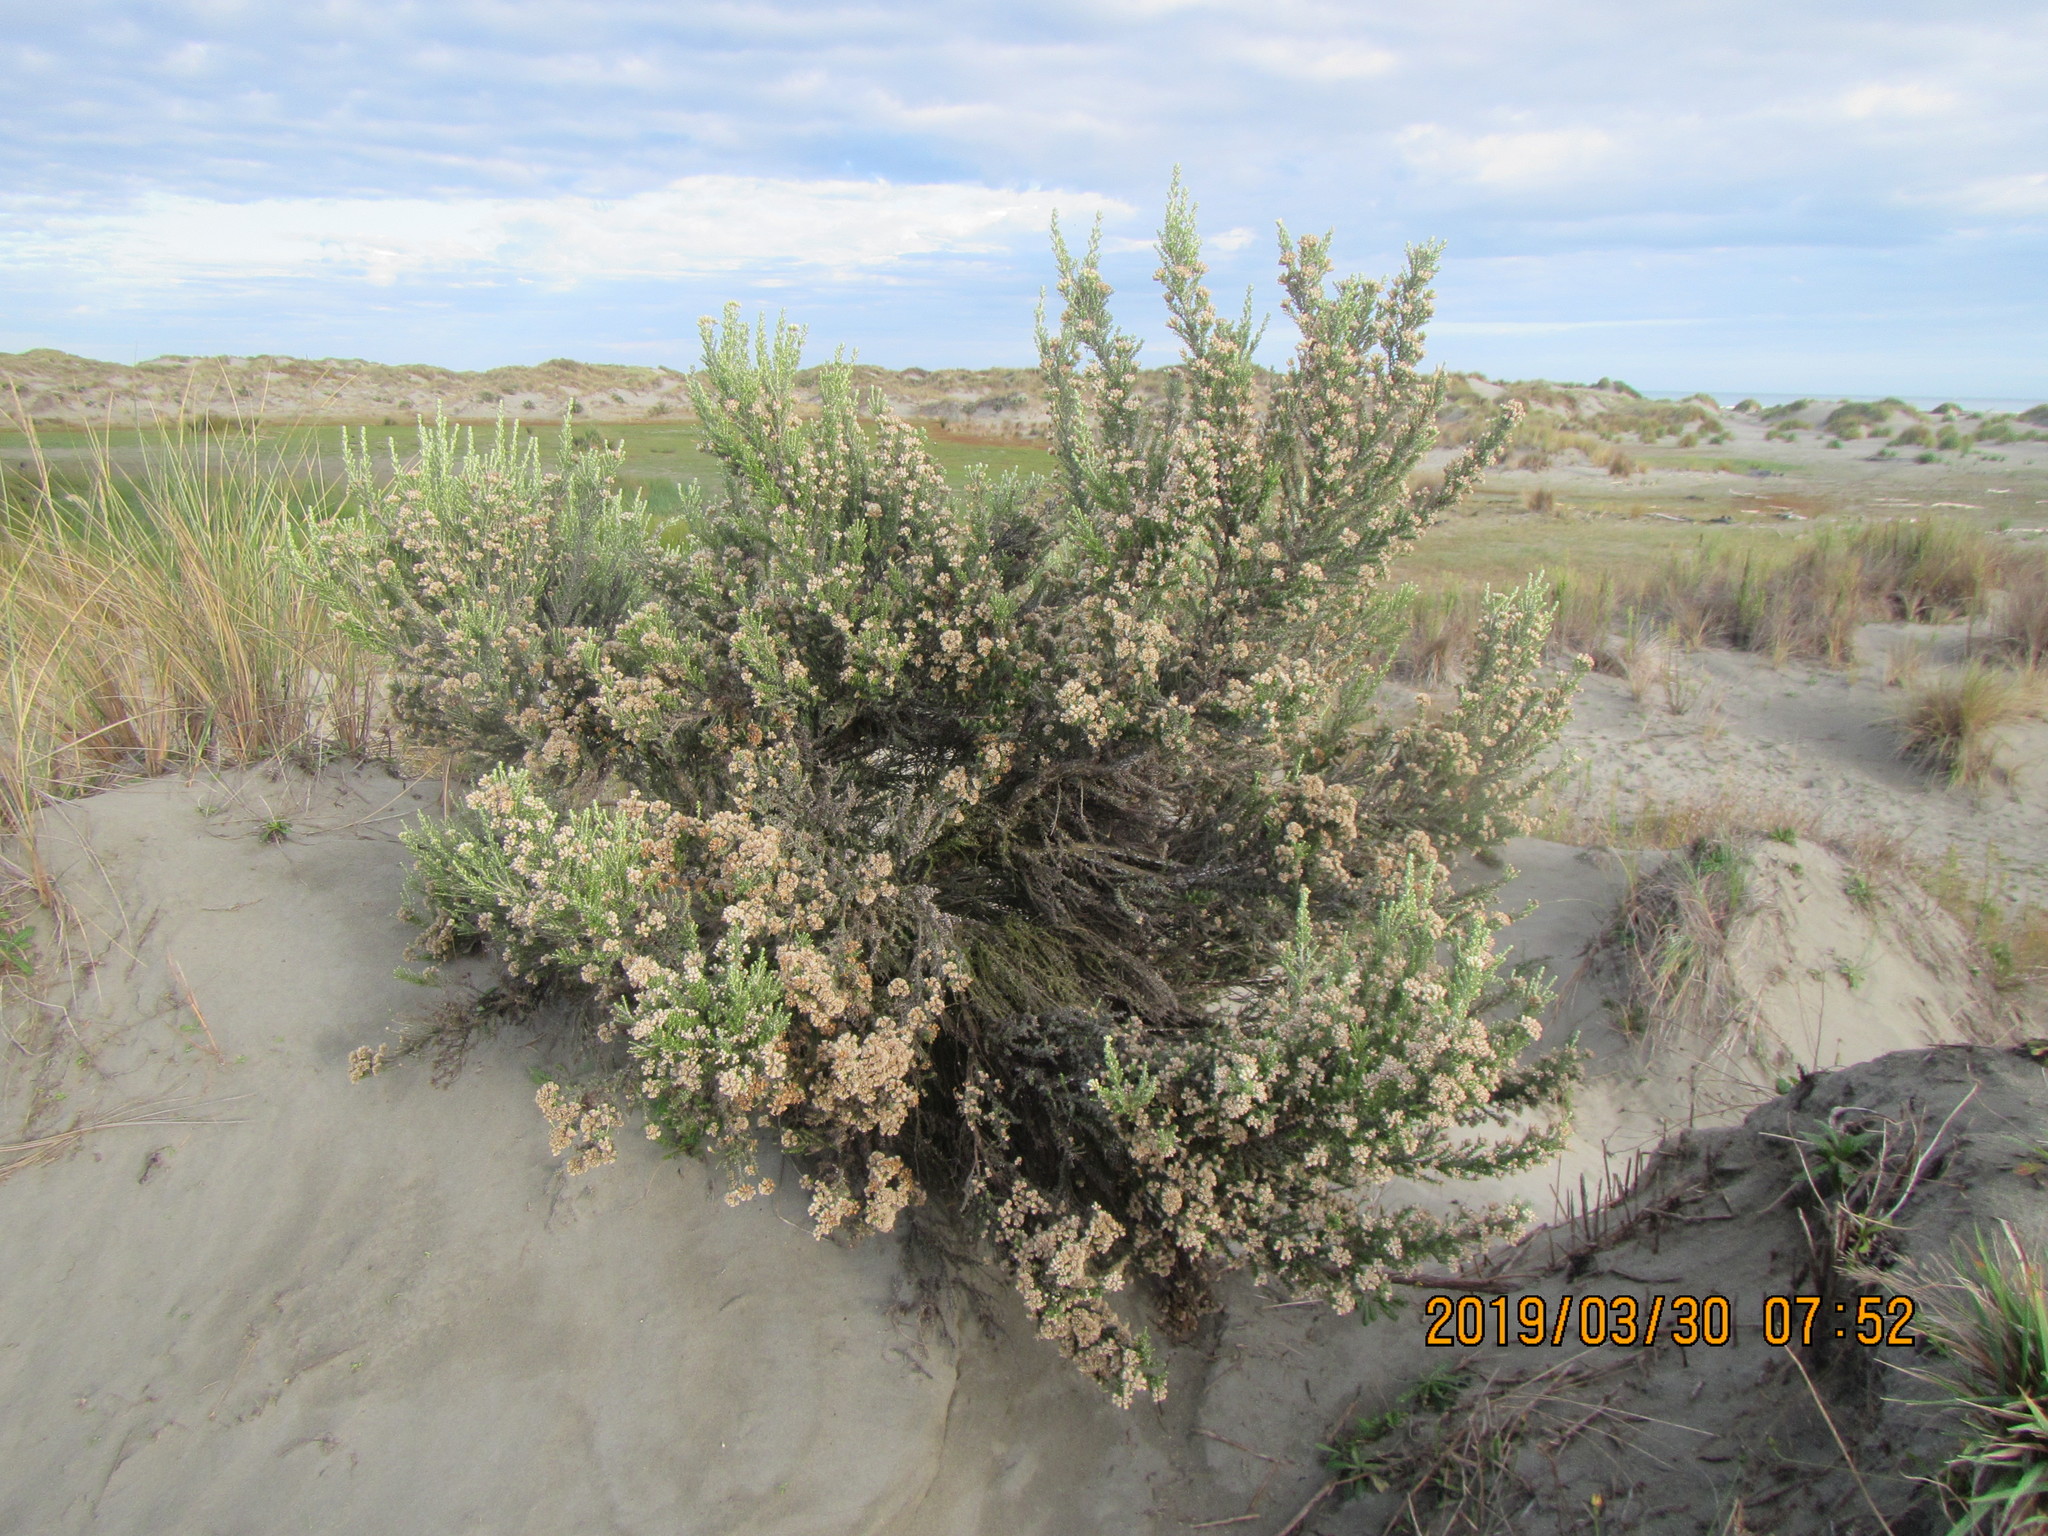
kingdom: Plantae
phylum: Tracheophyta
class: Magnoliopsida
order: Asterales
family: Asteraceae
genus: Ozothamnus
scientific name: Ozothamnus leptophyllus
